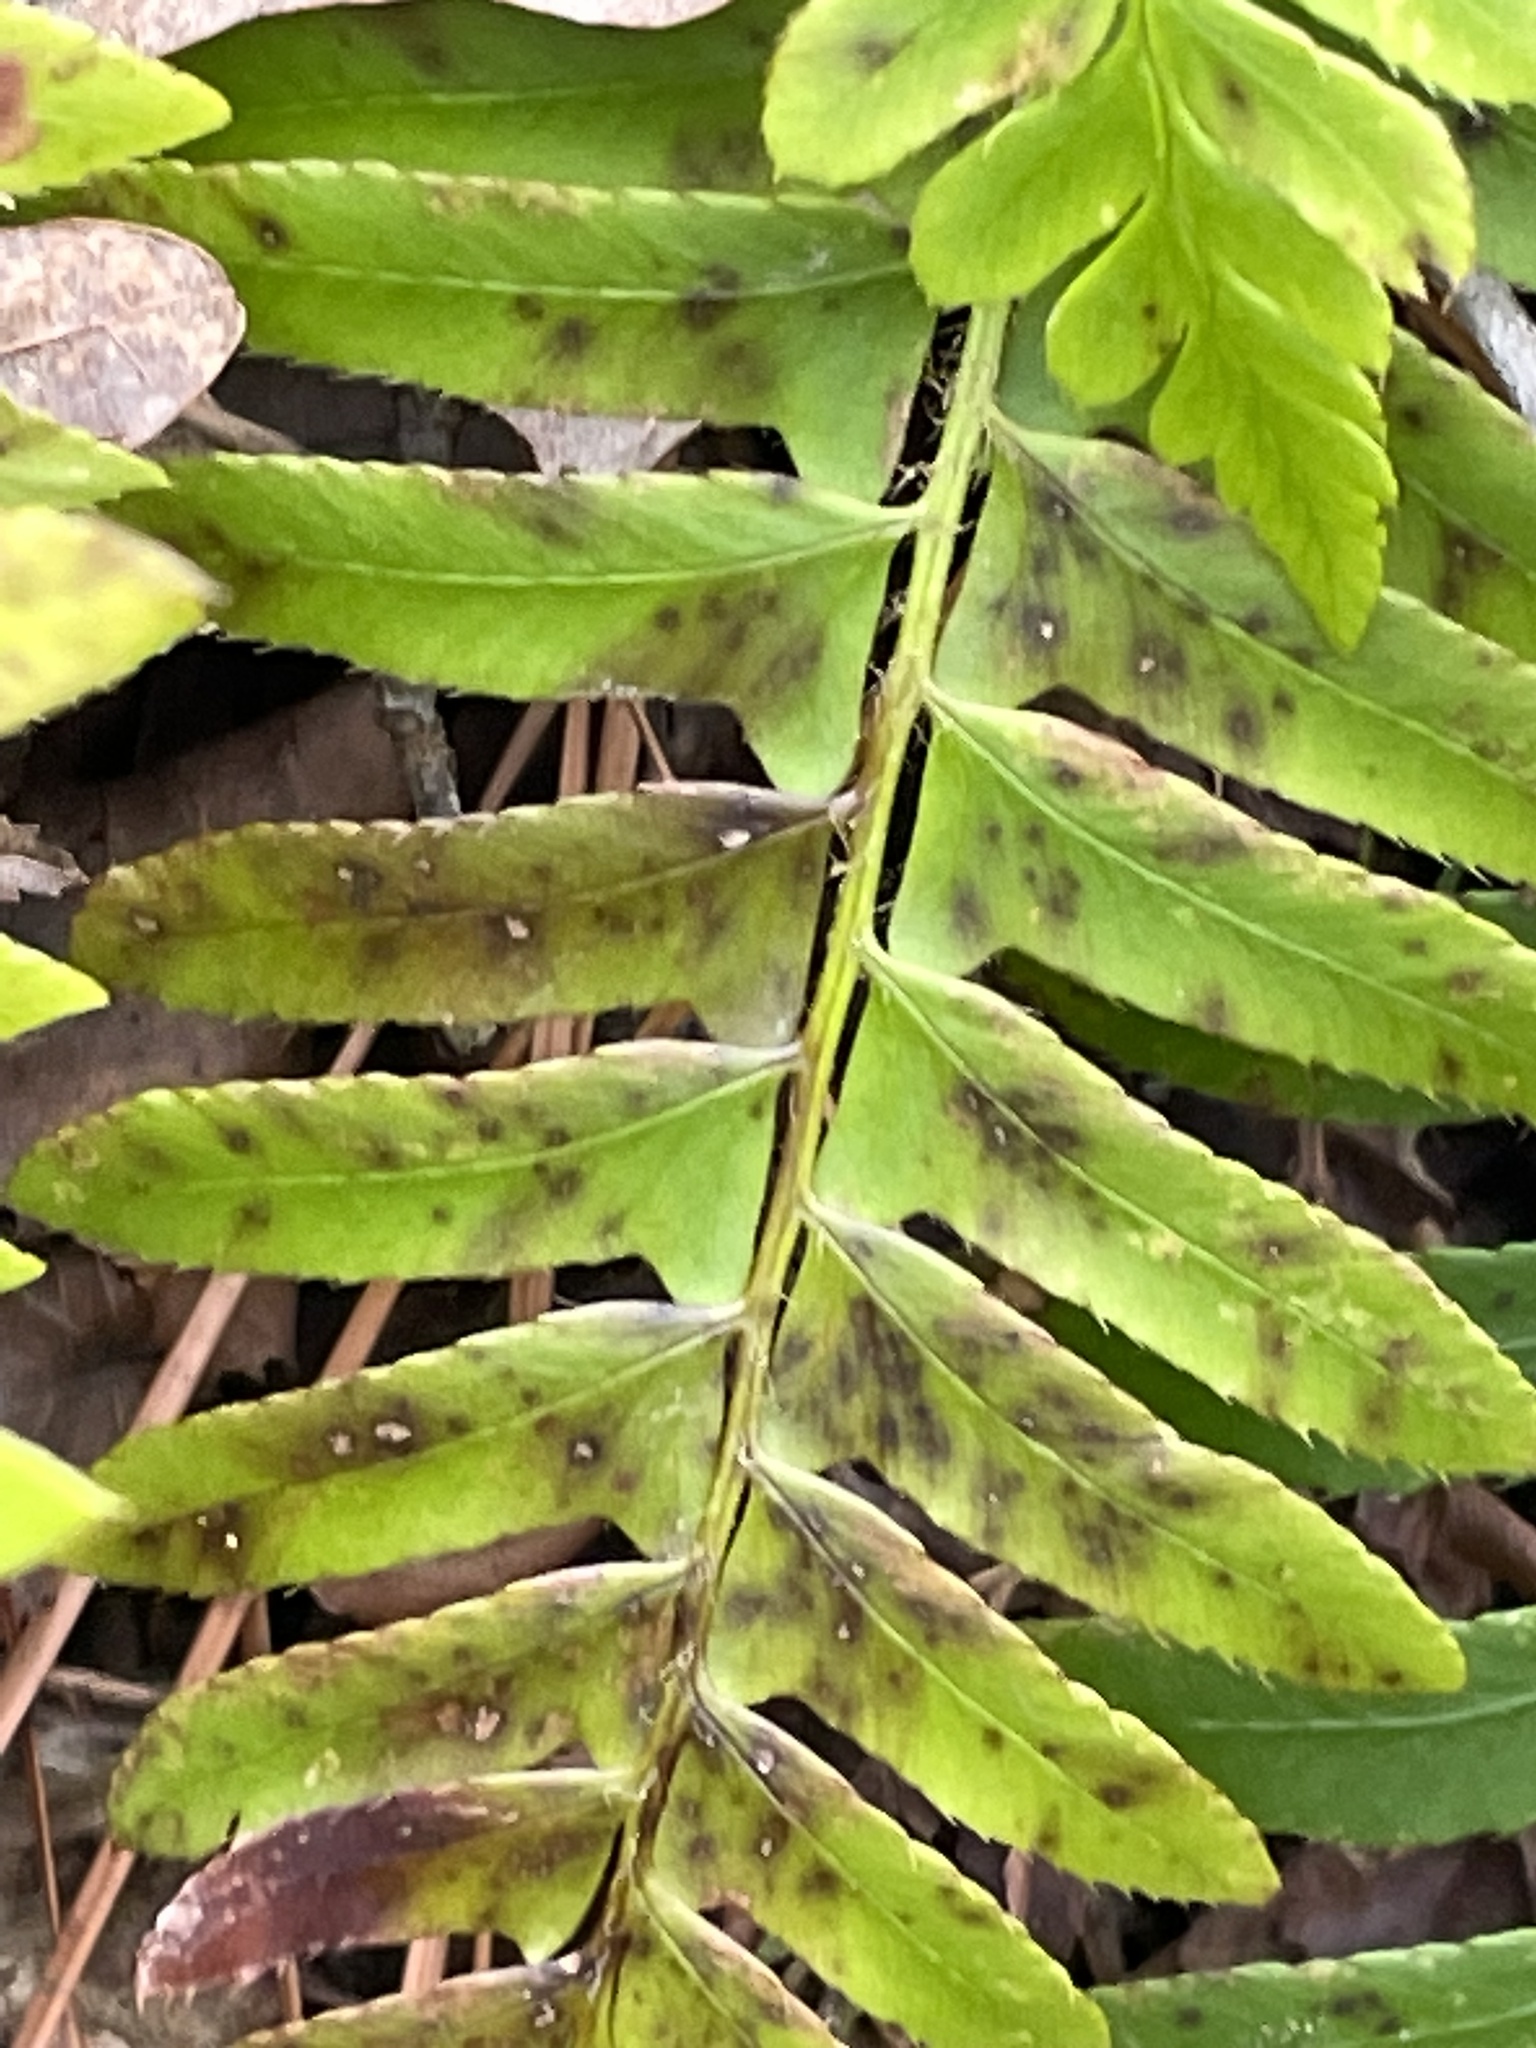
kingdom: Plantae
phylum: Tracheophyta
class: Polypodiopsida
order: Polypodiales
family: Dryopteridaceae
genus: Polystichum
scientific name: Polystichum acrostichoides
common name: Christmas fern
